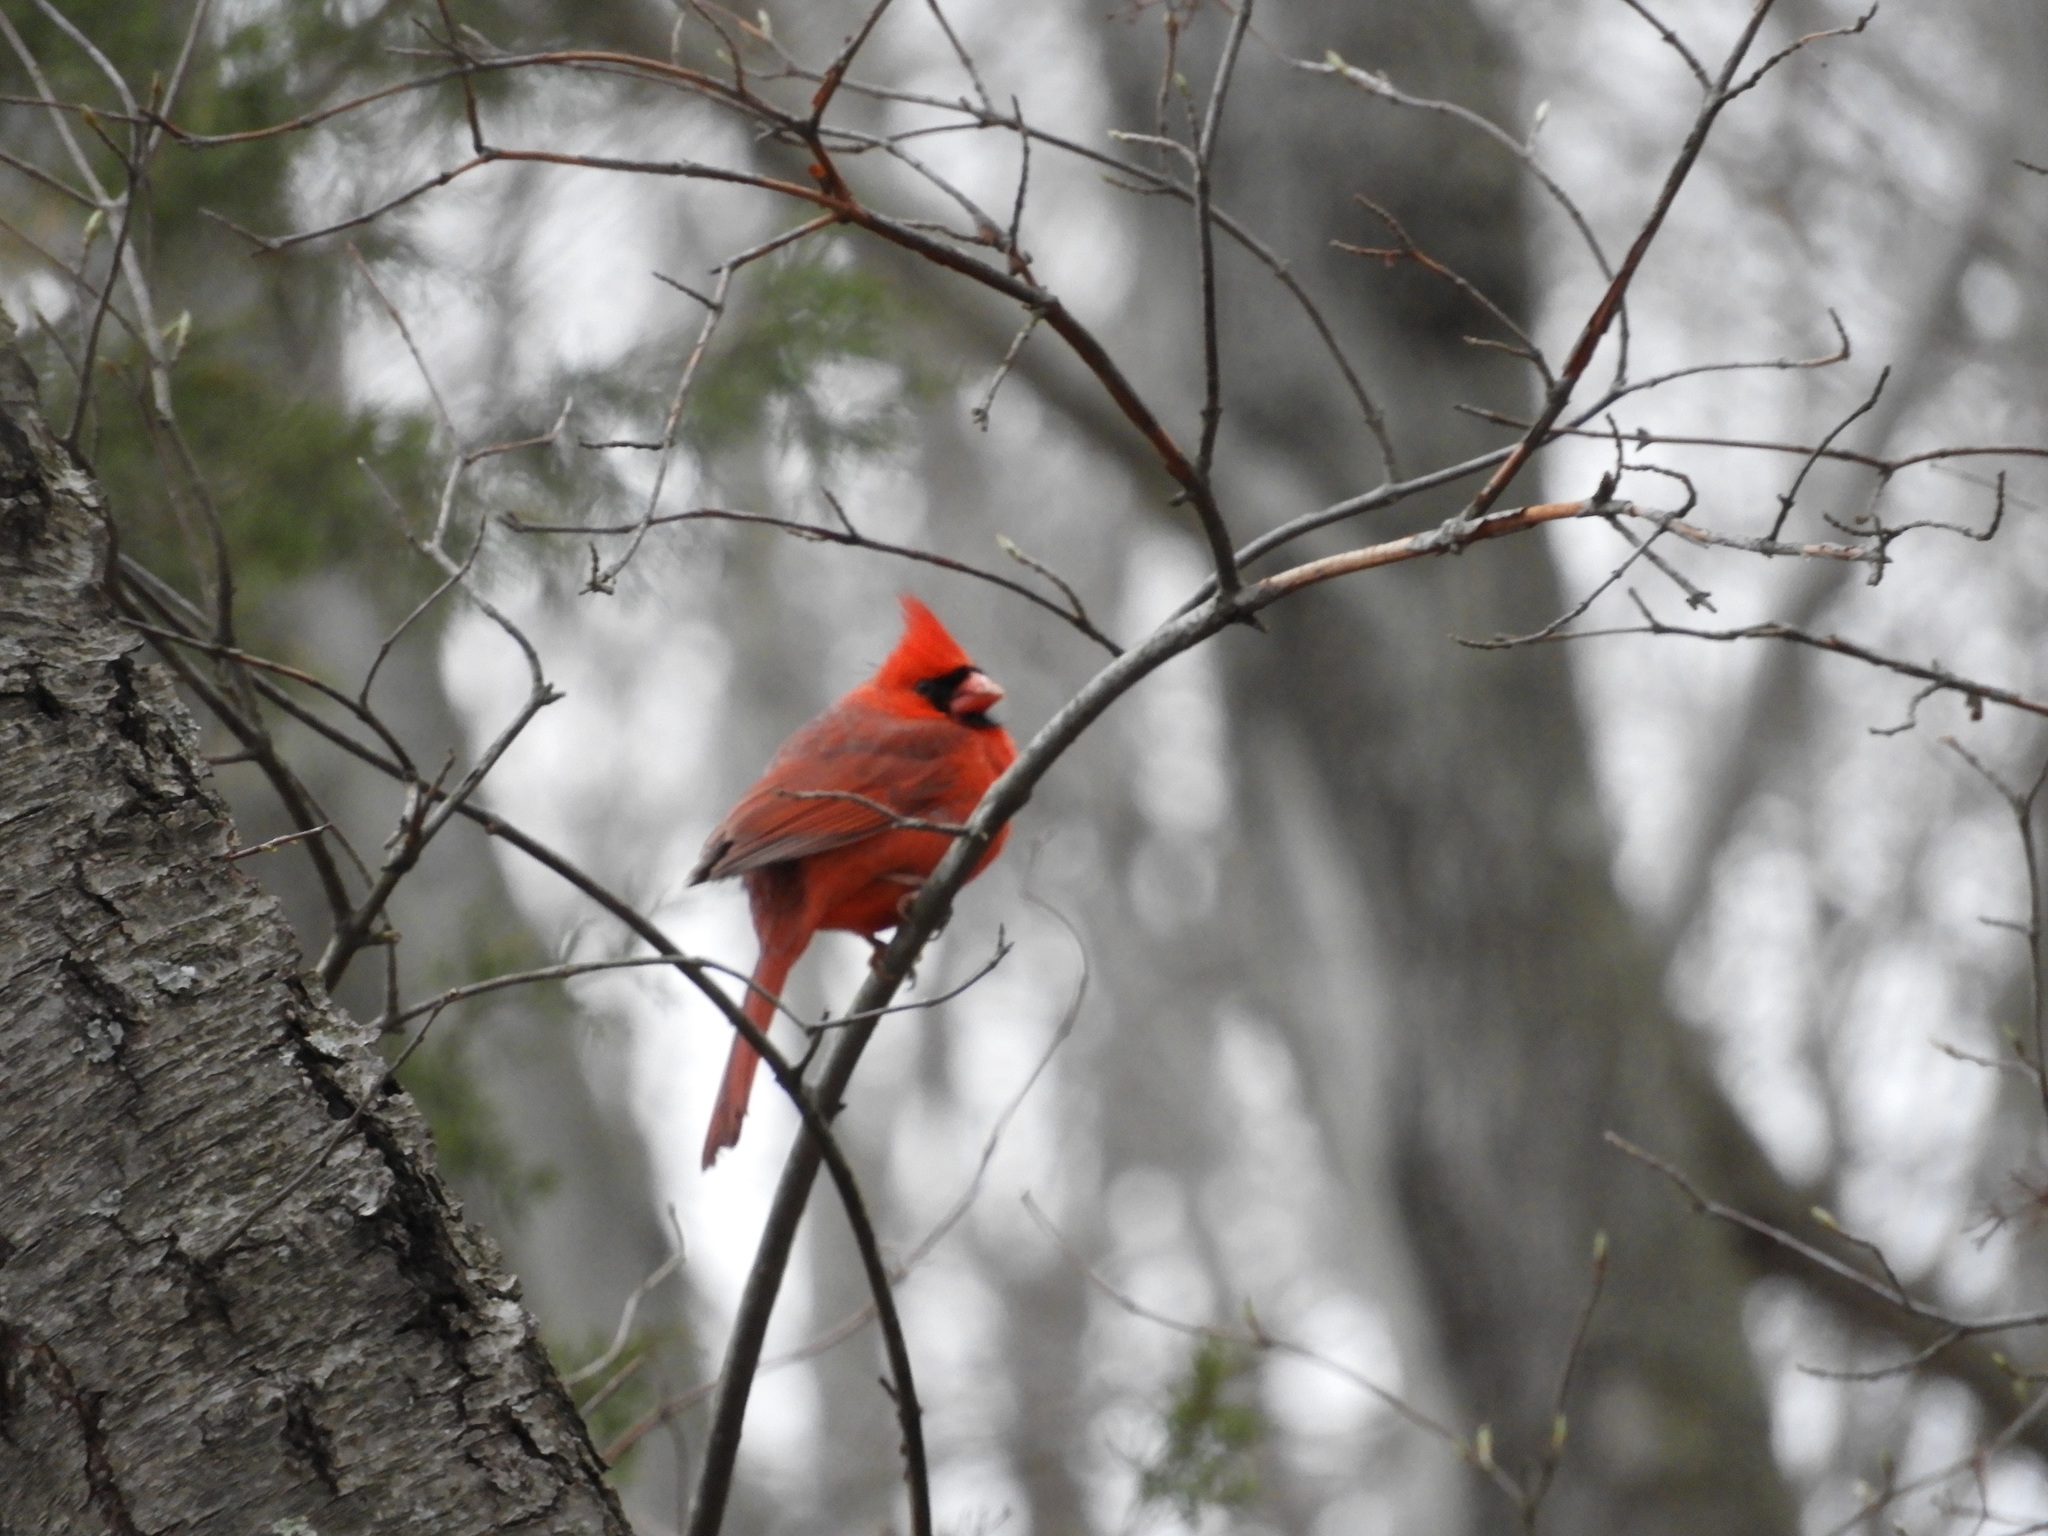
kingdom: Animalia
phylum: Chordata
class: Aves
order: Passeriformes
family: Cardinalidae
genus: Cardinalis
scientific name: Cardinalis cardinalis
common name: Northern cardinal
